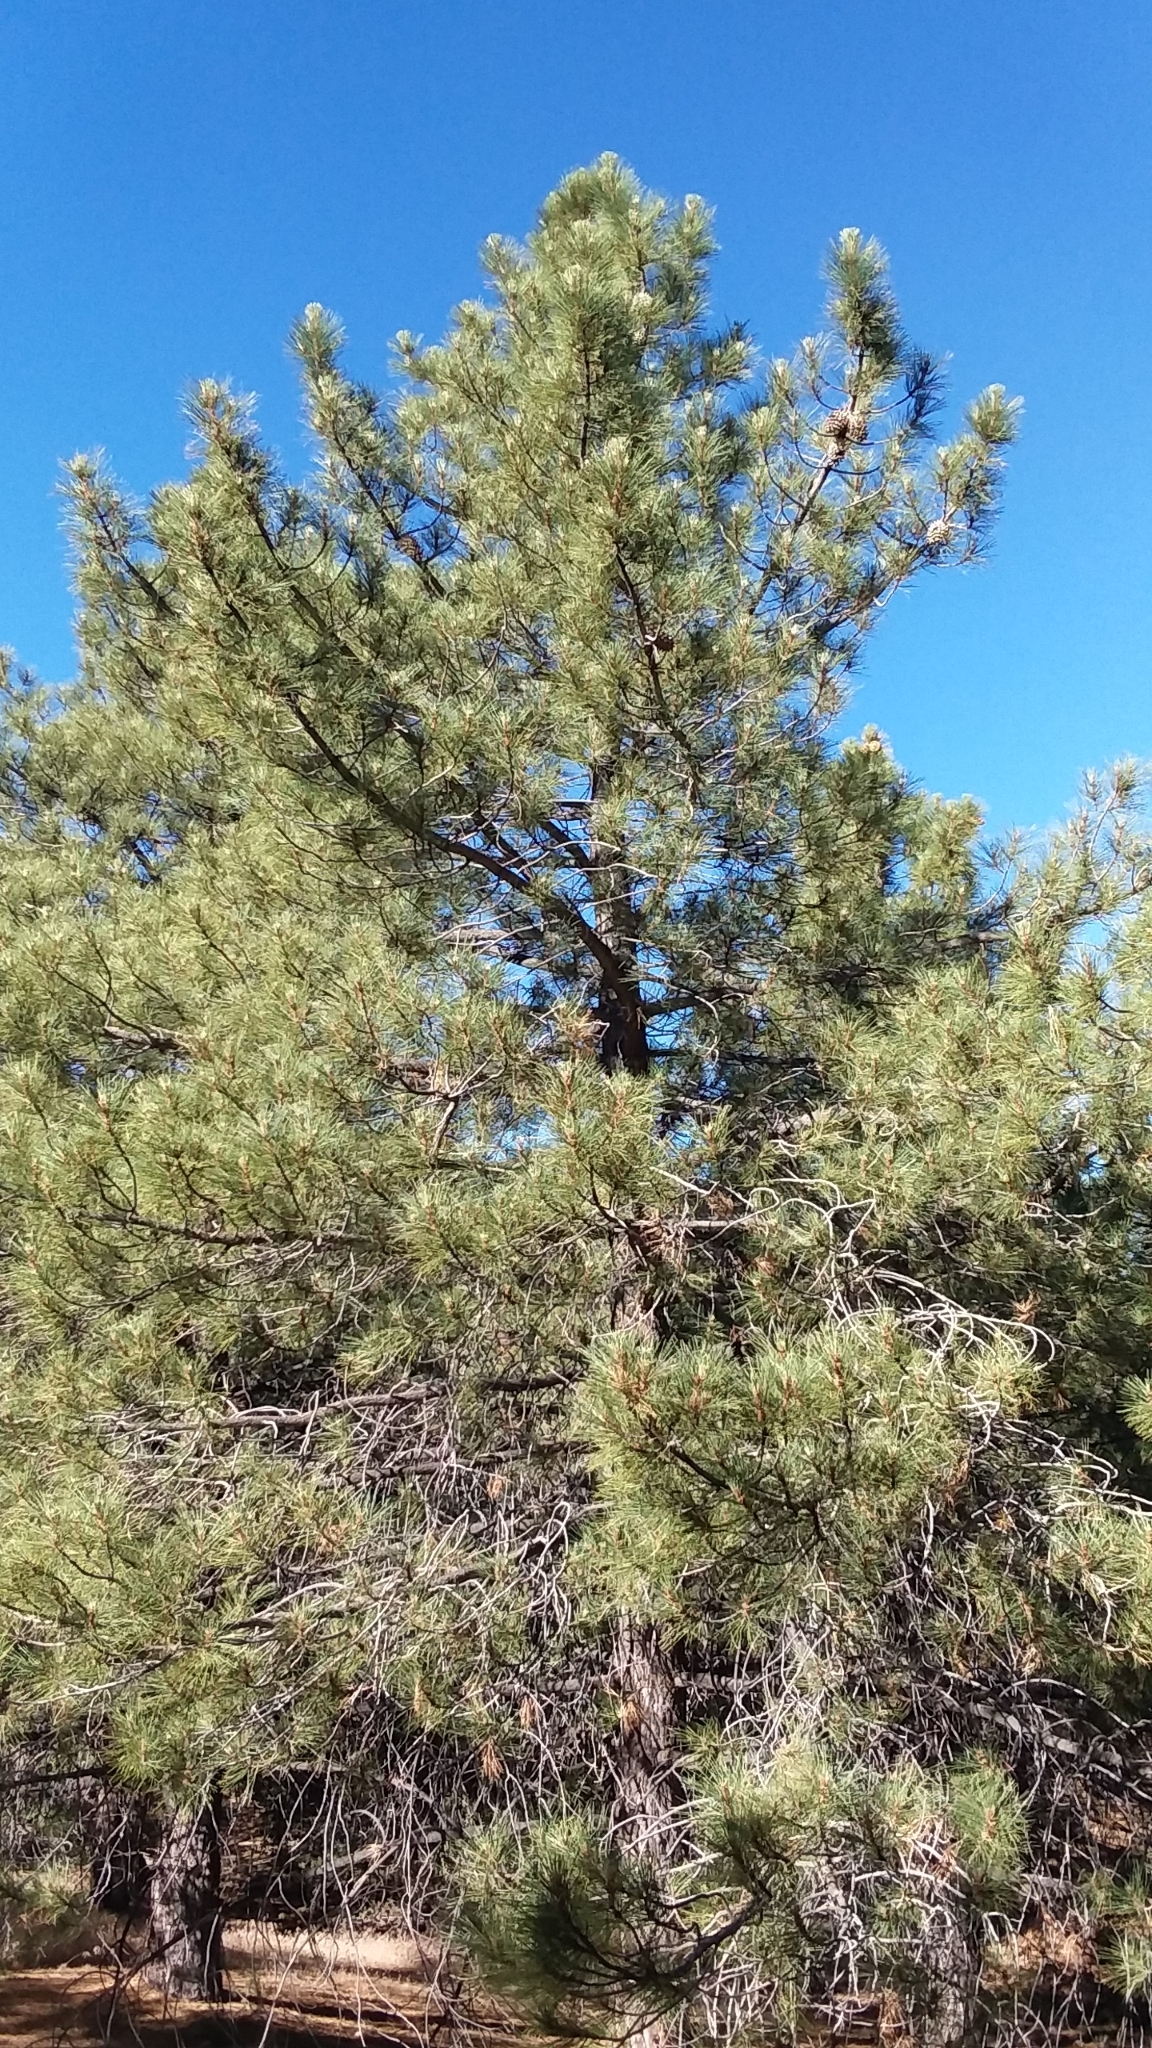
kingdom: Plantae
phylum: Tracheophyta
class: Pinopsida
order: Pinales
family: Pinaceae
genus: Pinus
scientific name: Pinus coulteri
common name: Coulter pine
